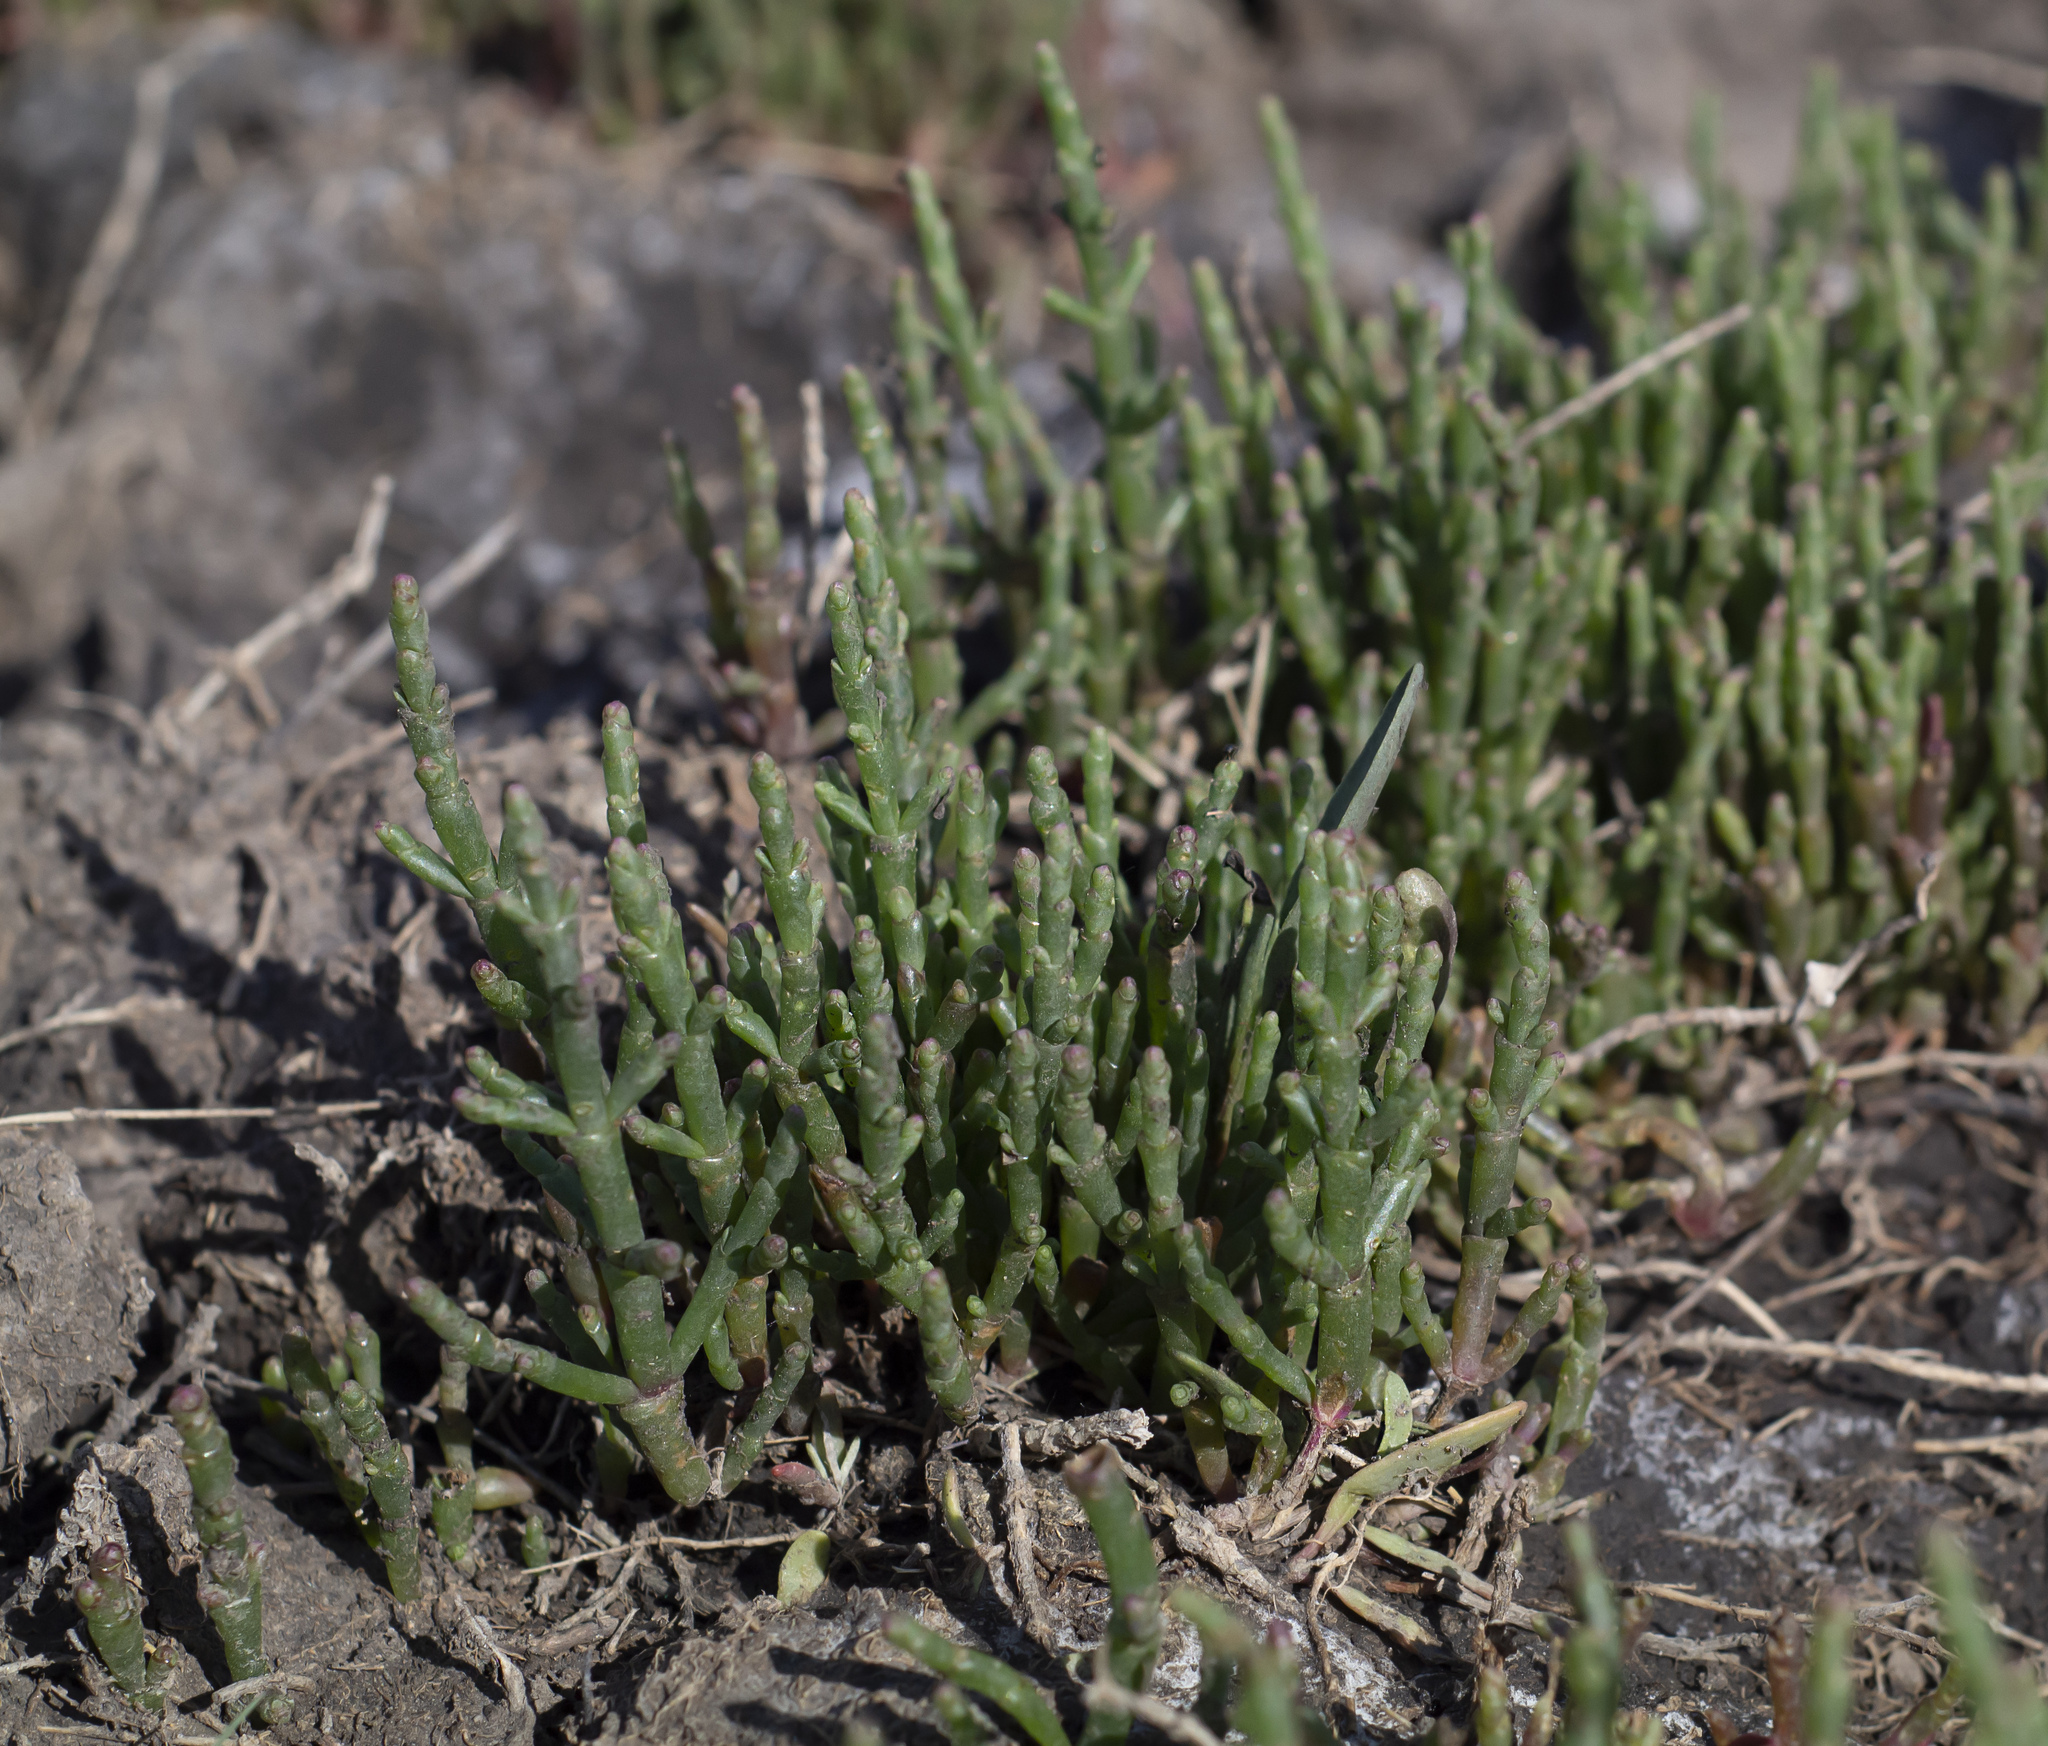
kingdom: Plantae
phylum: Tracheophyta
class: Magnoliopsida
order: Caryophyllales
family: Amaranthaceae
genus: Salicornia
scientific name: Salicornia perennans
